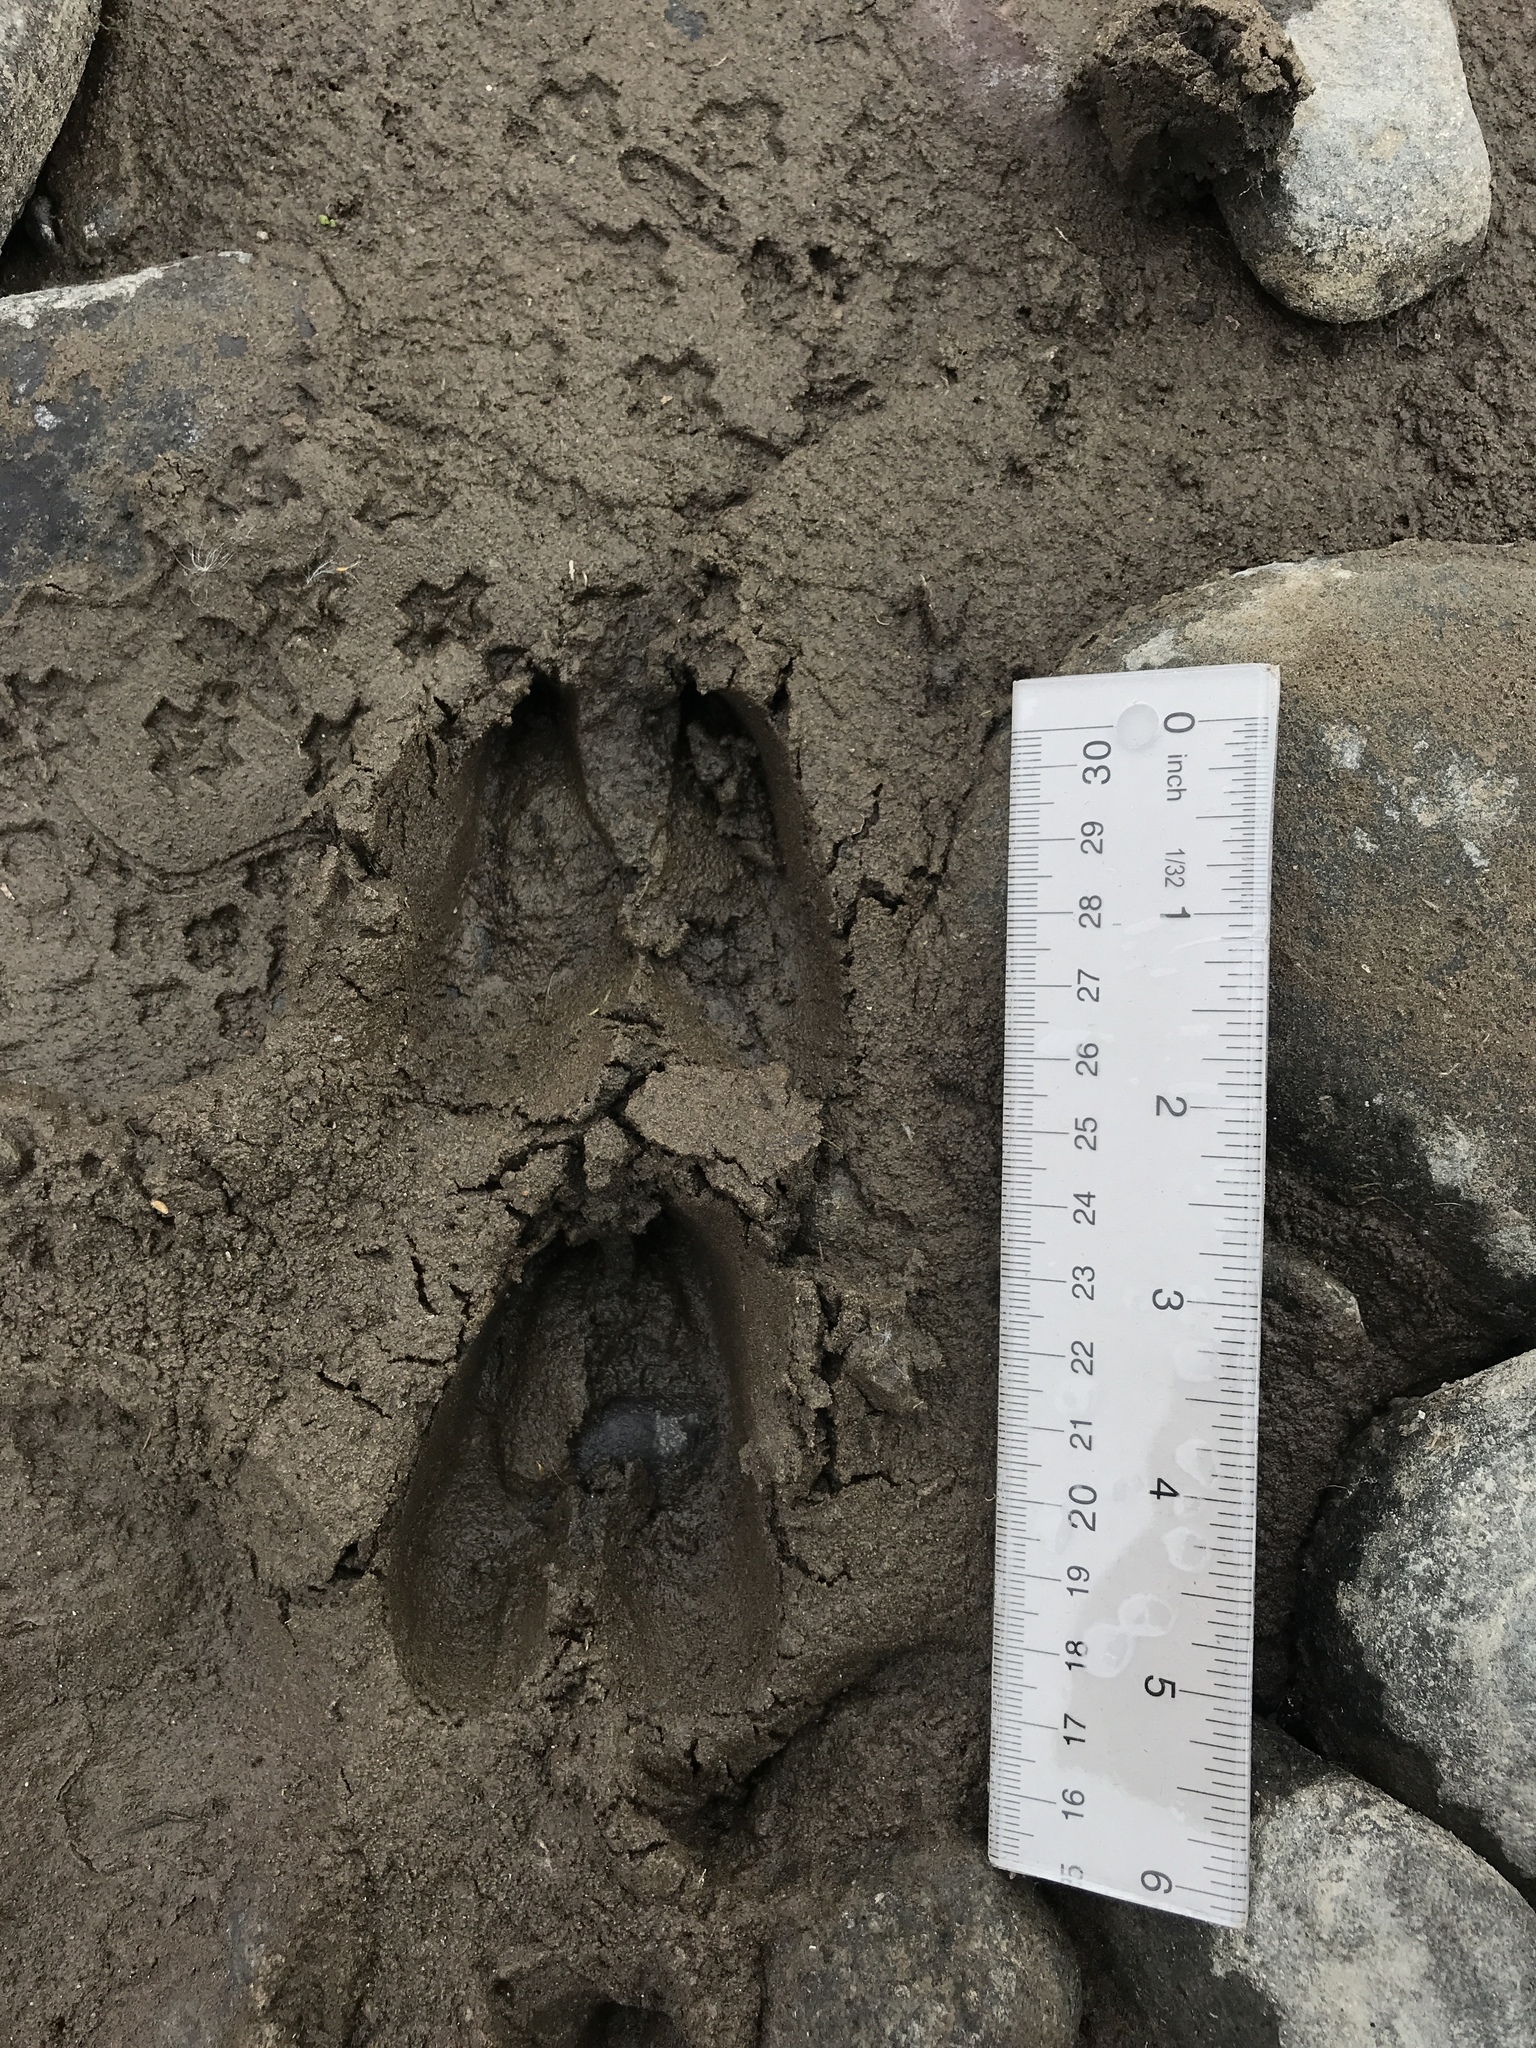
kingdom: Animalia
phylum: Chordata
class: Mammalia
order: Artiodactyla
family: Cervidae
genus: Odocoileus
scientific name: Odocoileus hemionus
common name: Mule deer
